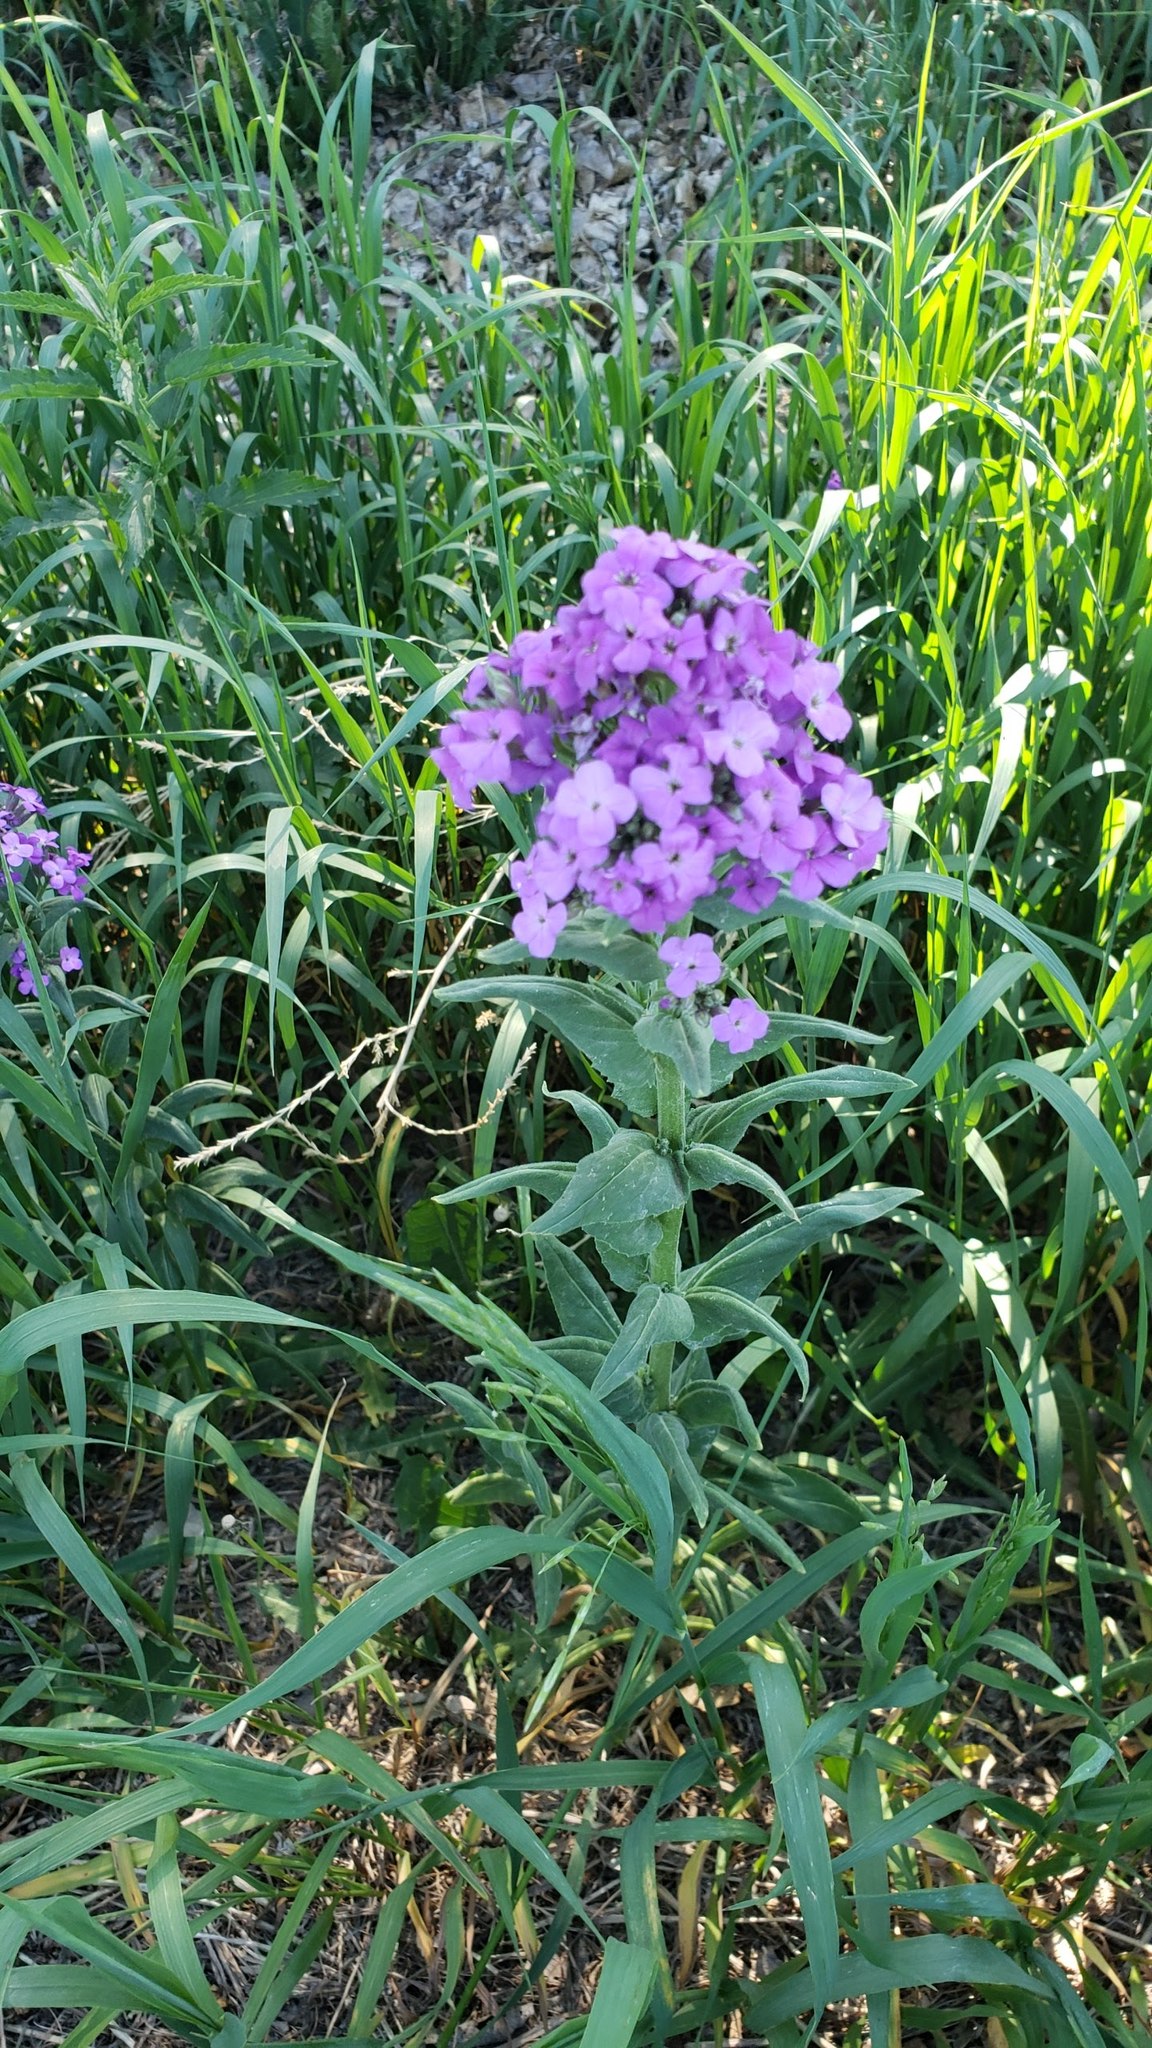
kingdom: Plantae
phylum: Tracheophyta
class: Magnoliopsida
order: Brassicales
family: Brassicaceae
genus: Hesperis
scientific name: Hesperis matronalis
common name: Dame's-violet
